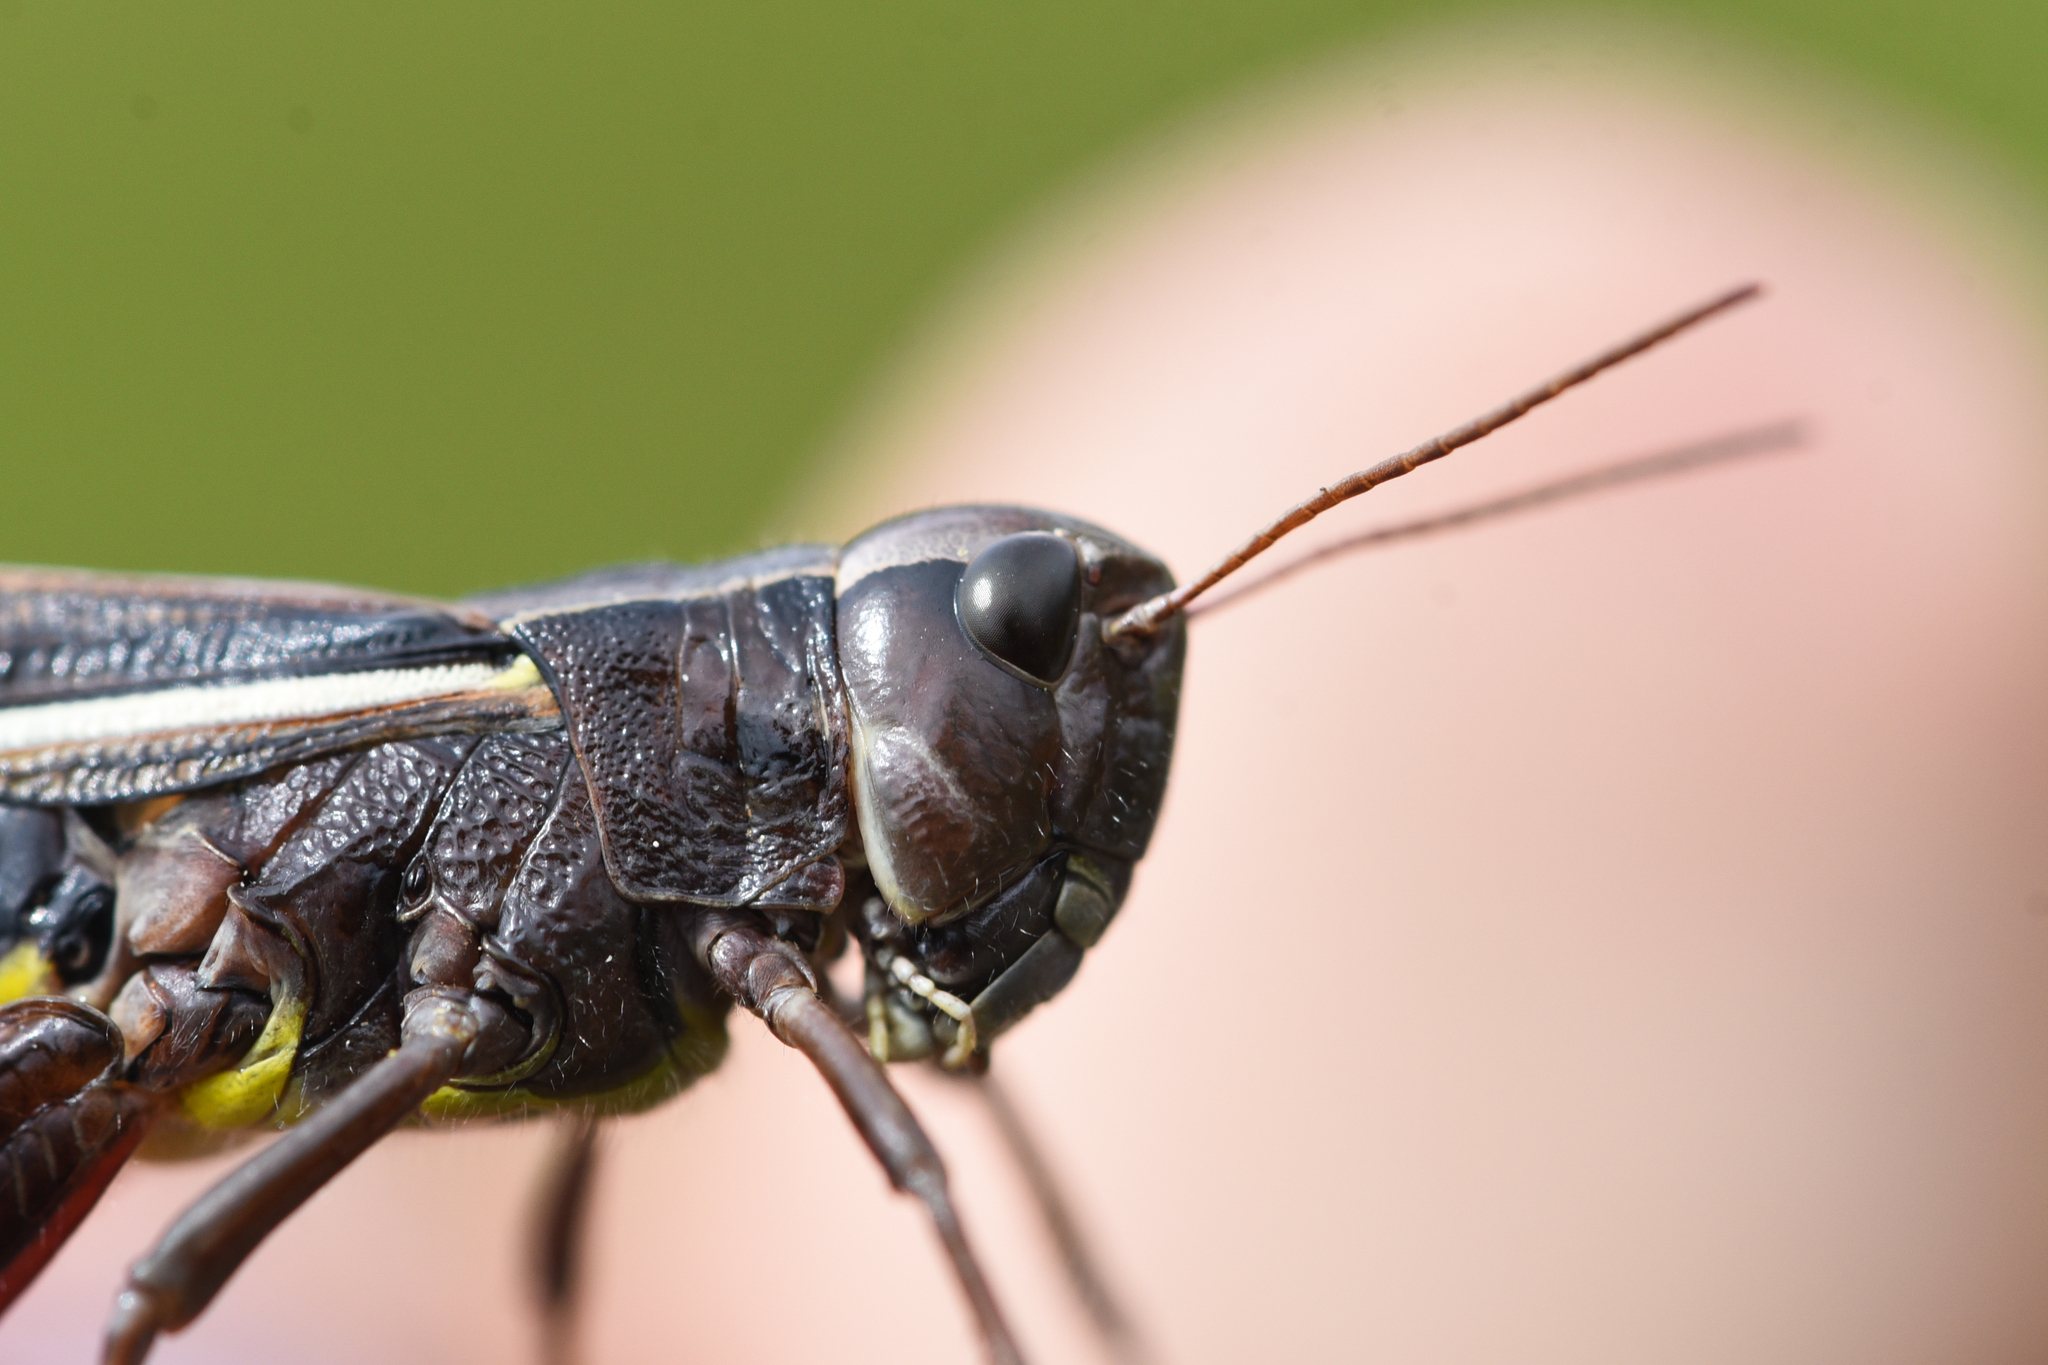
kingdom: Animalia
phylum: Arthropoda
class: Insecta
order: Orthoptera
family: Acrididae
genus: Stethophyma
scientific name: Stethophyma lineatum
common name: Striped sedge locust
